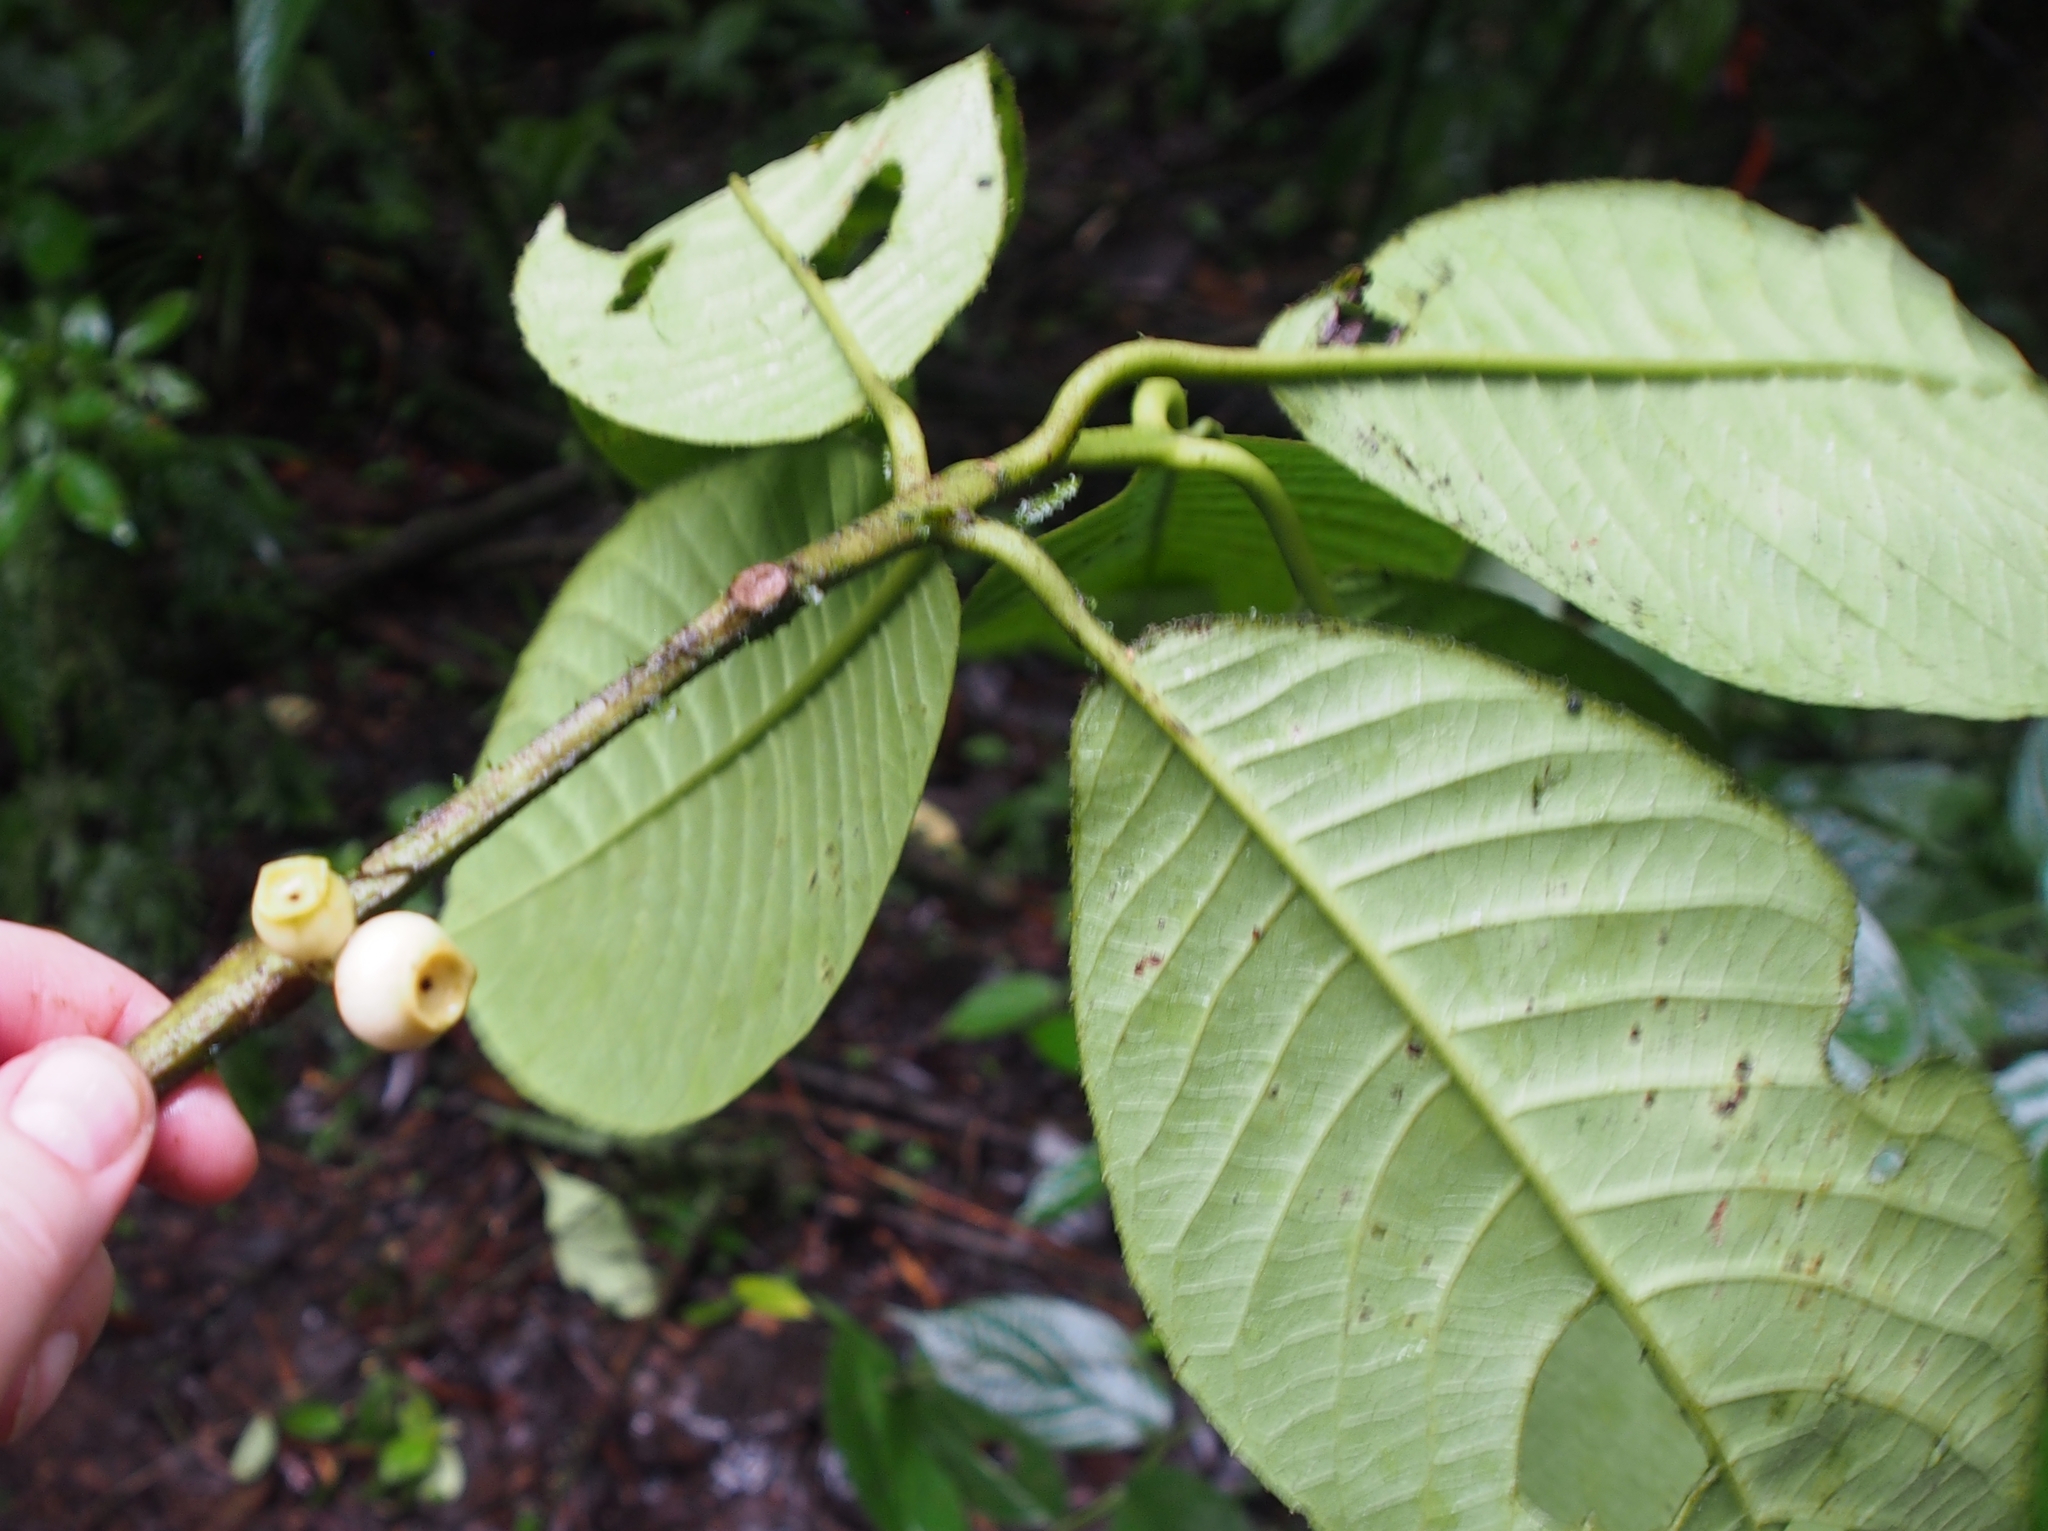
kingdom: Plantae
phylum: Tracheophyta
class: Magnoliopsida
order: Laurales
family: Siparunaceae
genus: Siparuna
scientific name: Siparuna pauciflora
